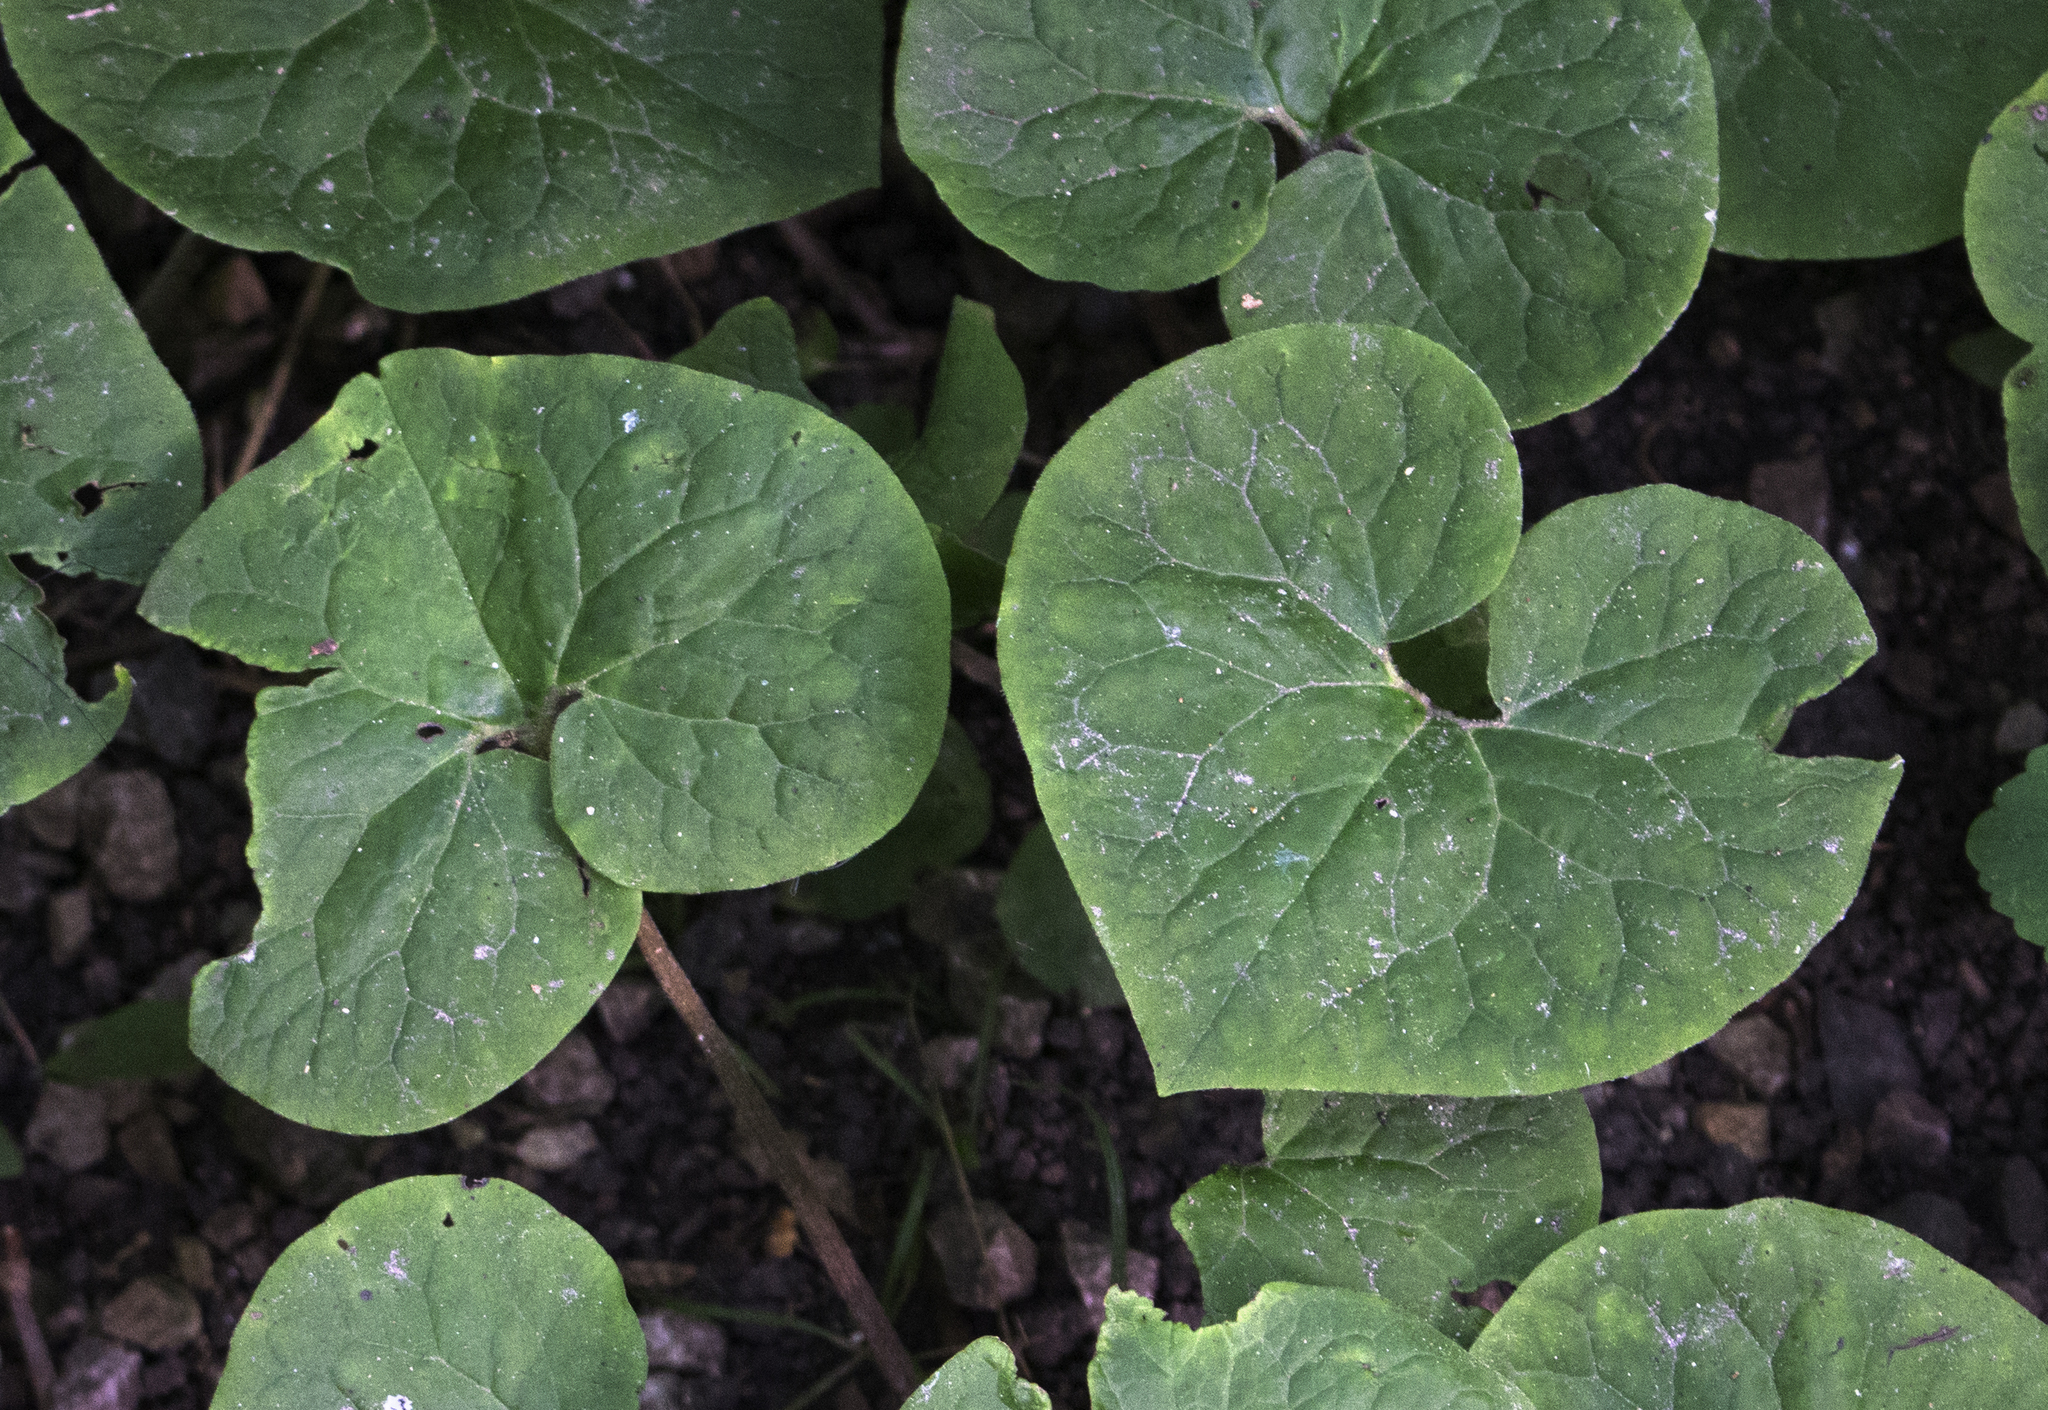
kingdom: Plantae
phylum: Tracheophyta
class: Magnoliopsida
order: Piperales
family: Aristolochiaceae
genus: Asarum
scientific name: Asarum canadense
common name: Wild ginger
